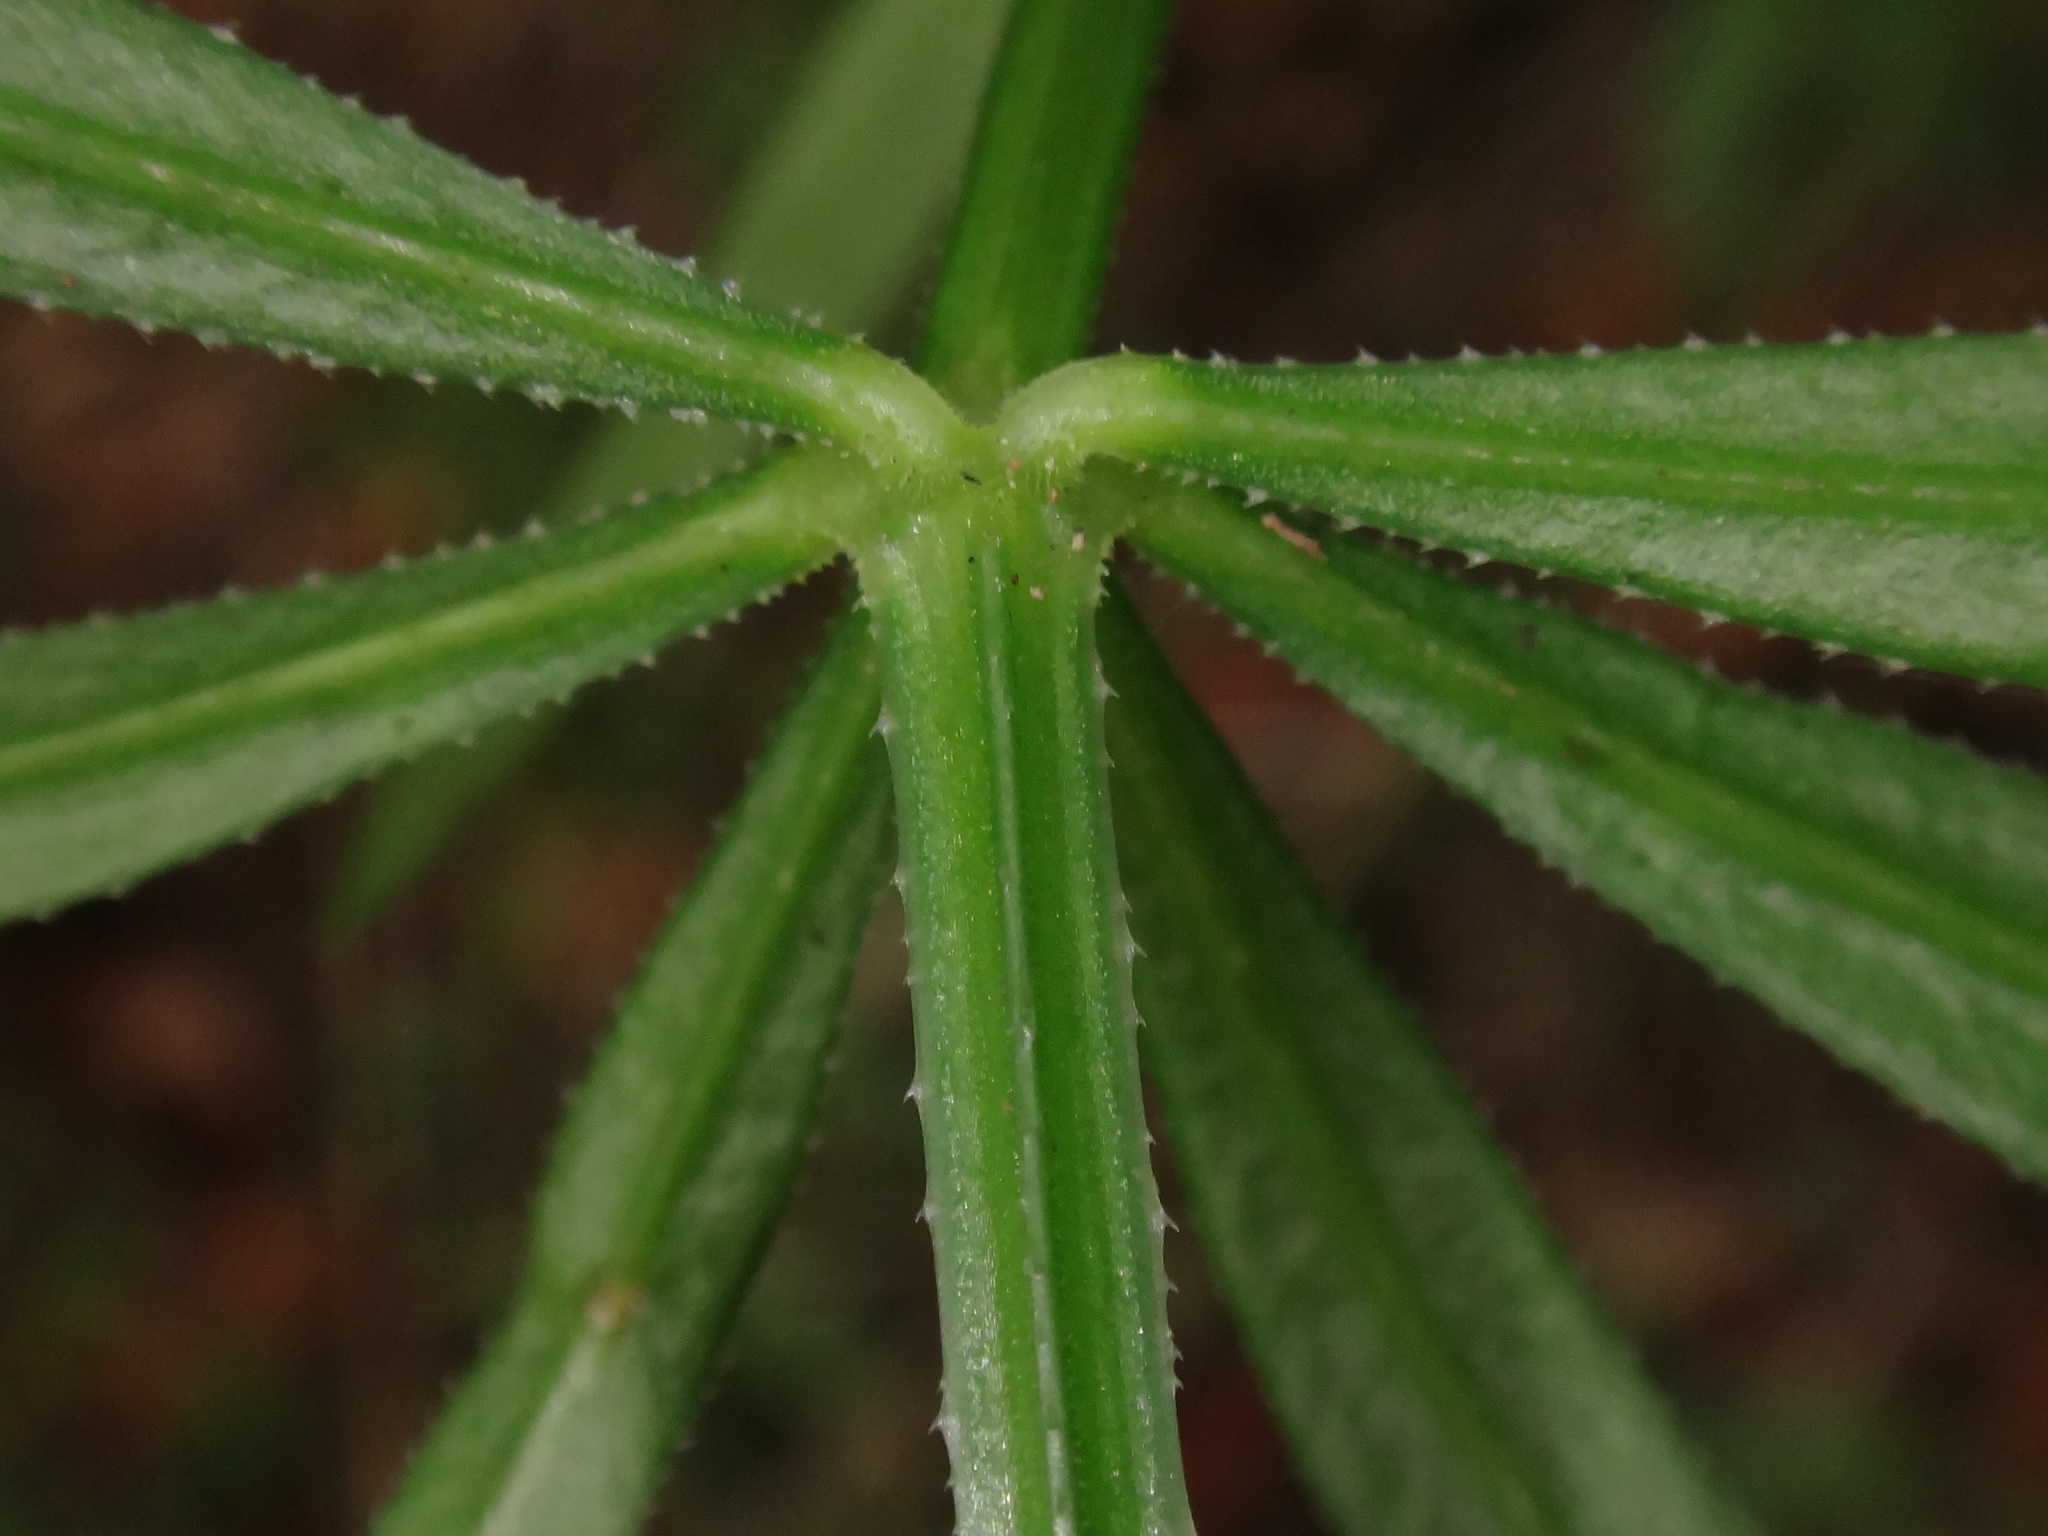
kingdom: Plantae
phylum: Tracheophyta
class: Magnoliopsida
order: Gentianales
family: Rubiaceae
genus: Rubia
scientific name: Rubia occidens
